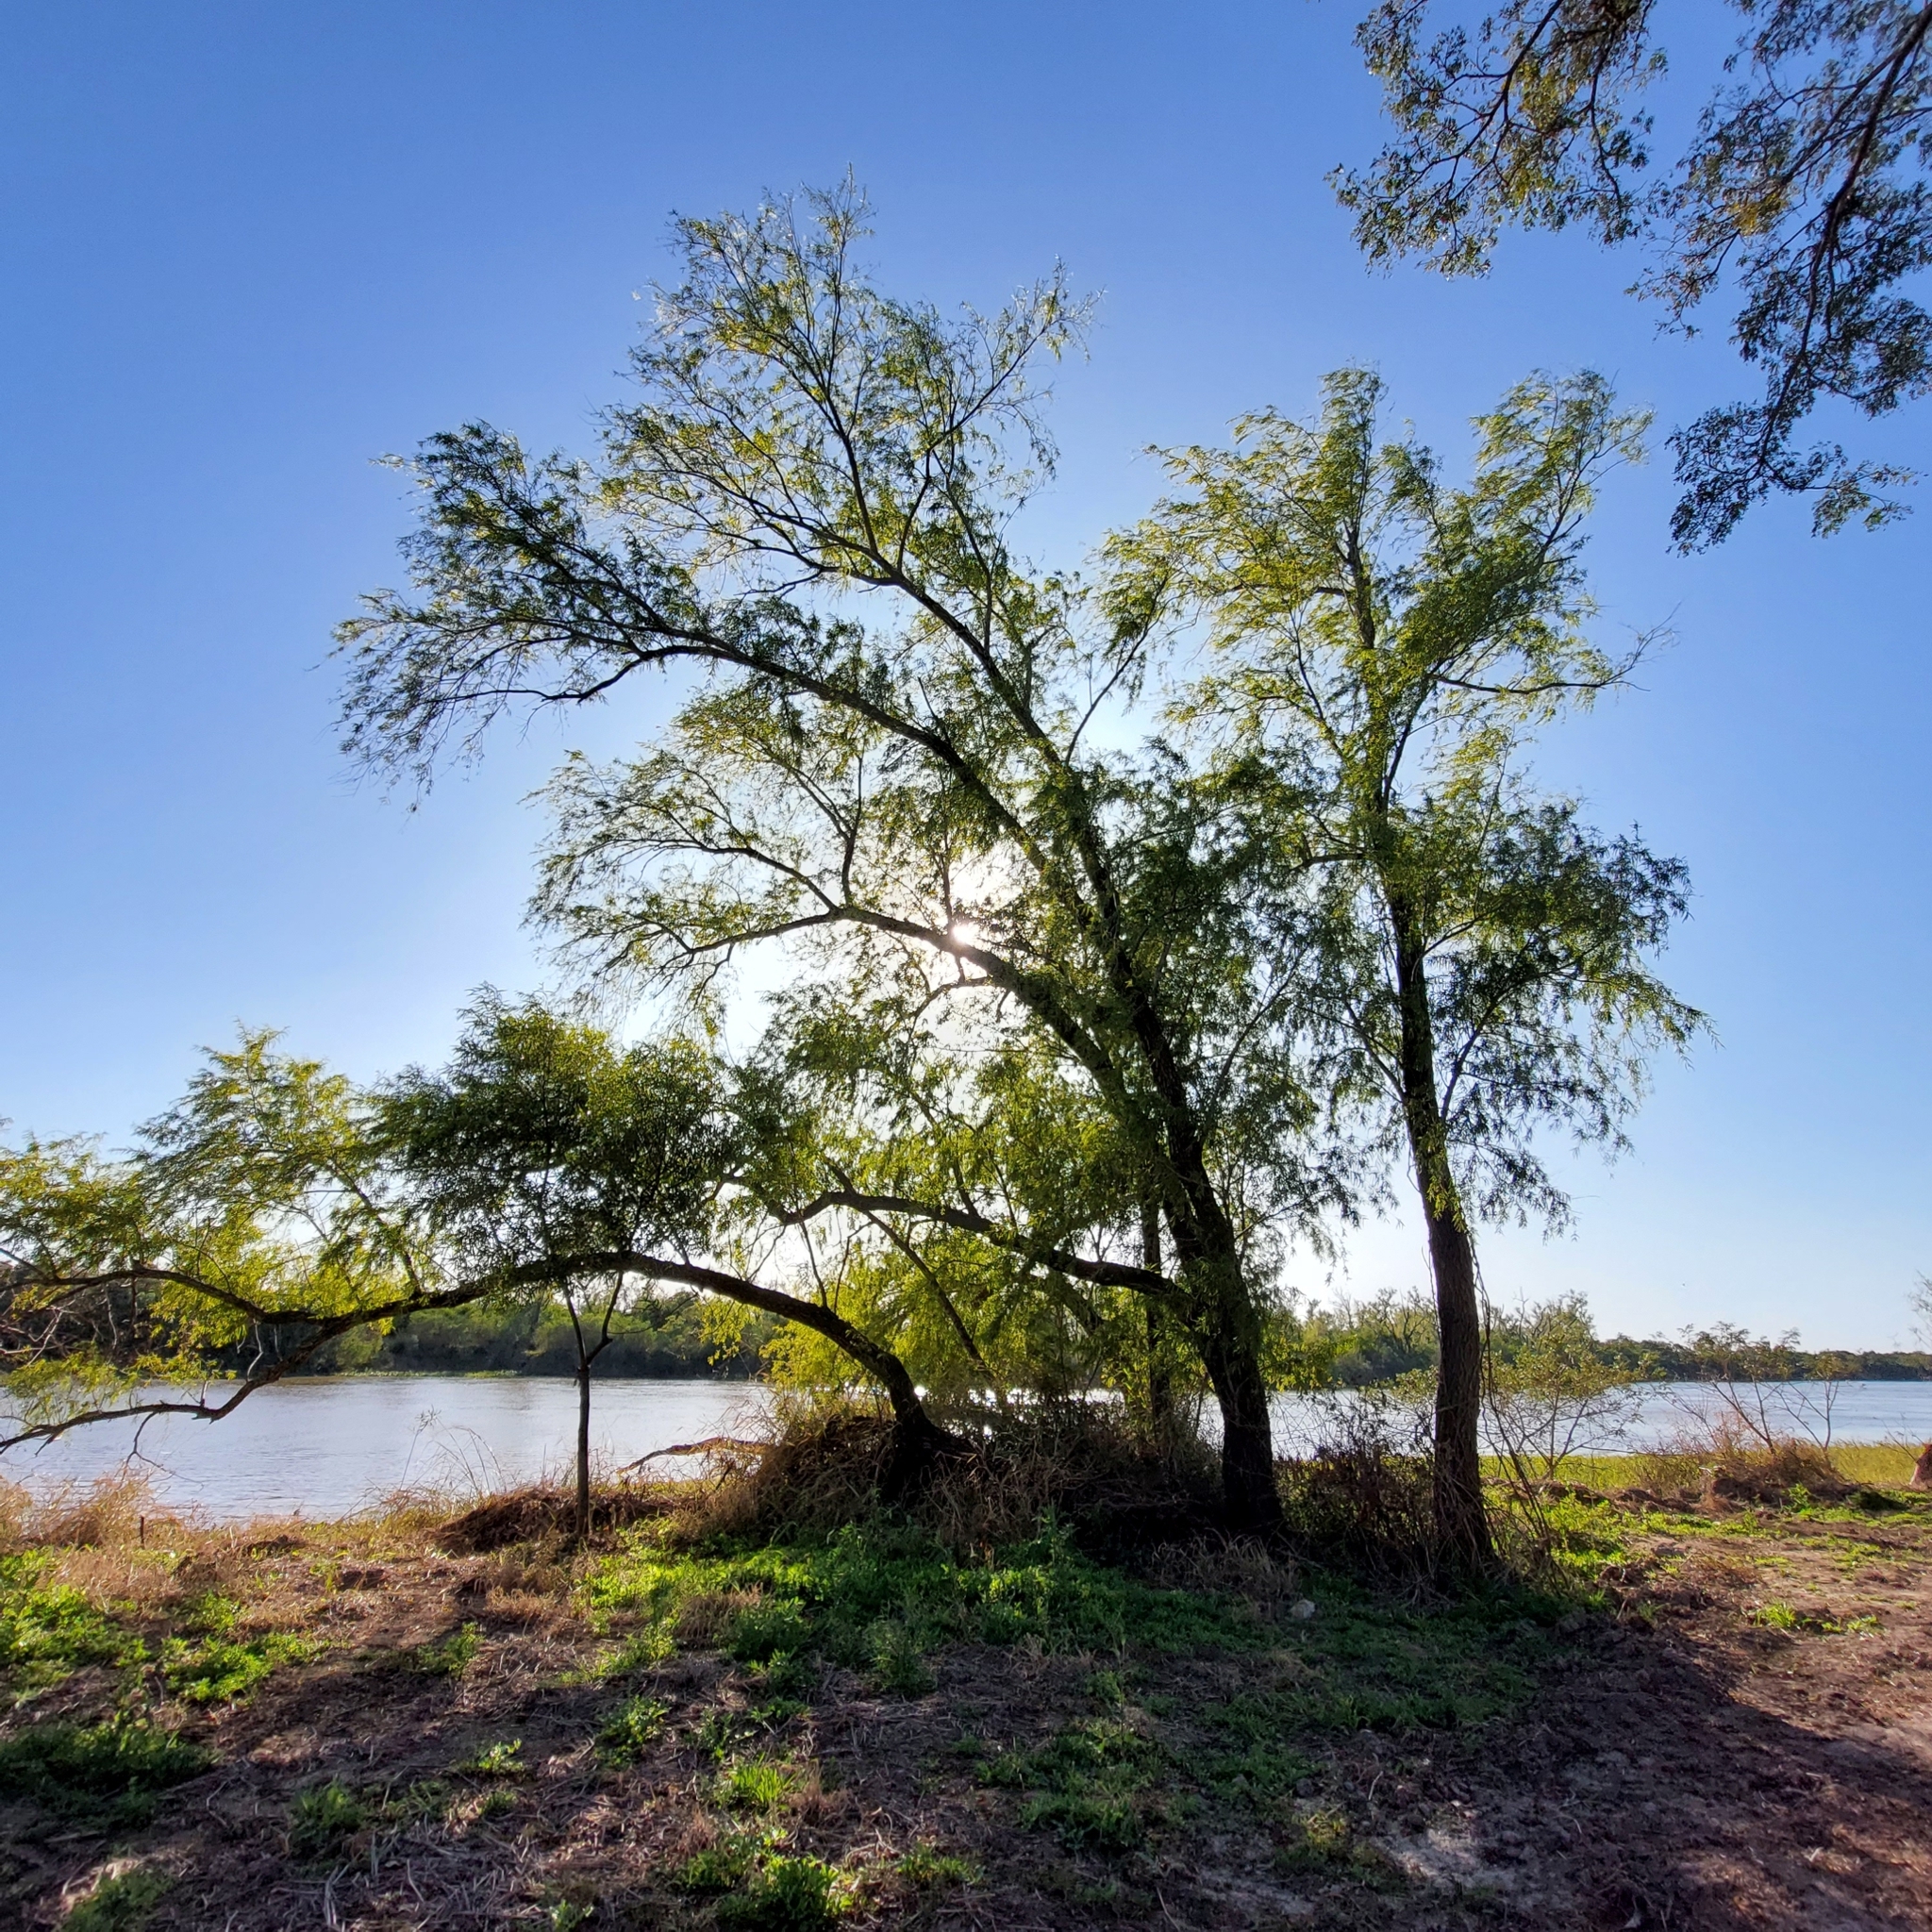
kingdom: Plantae
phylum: Tracheophyta
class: Magnoliopsida
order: Malpighiales
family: Salicaceae
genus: Salix
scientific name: Salix humboldtiana
